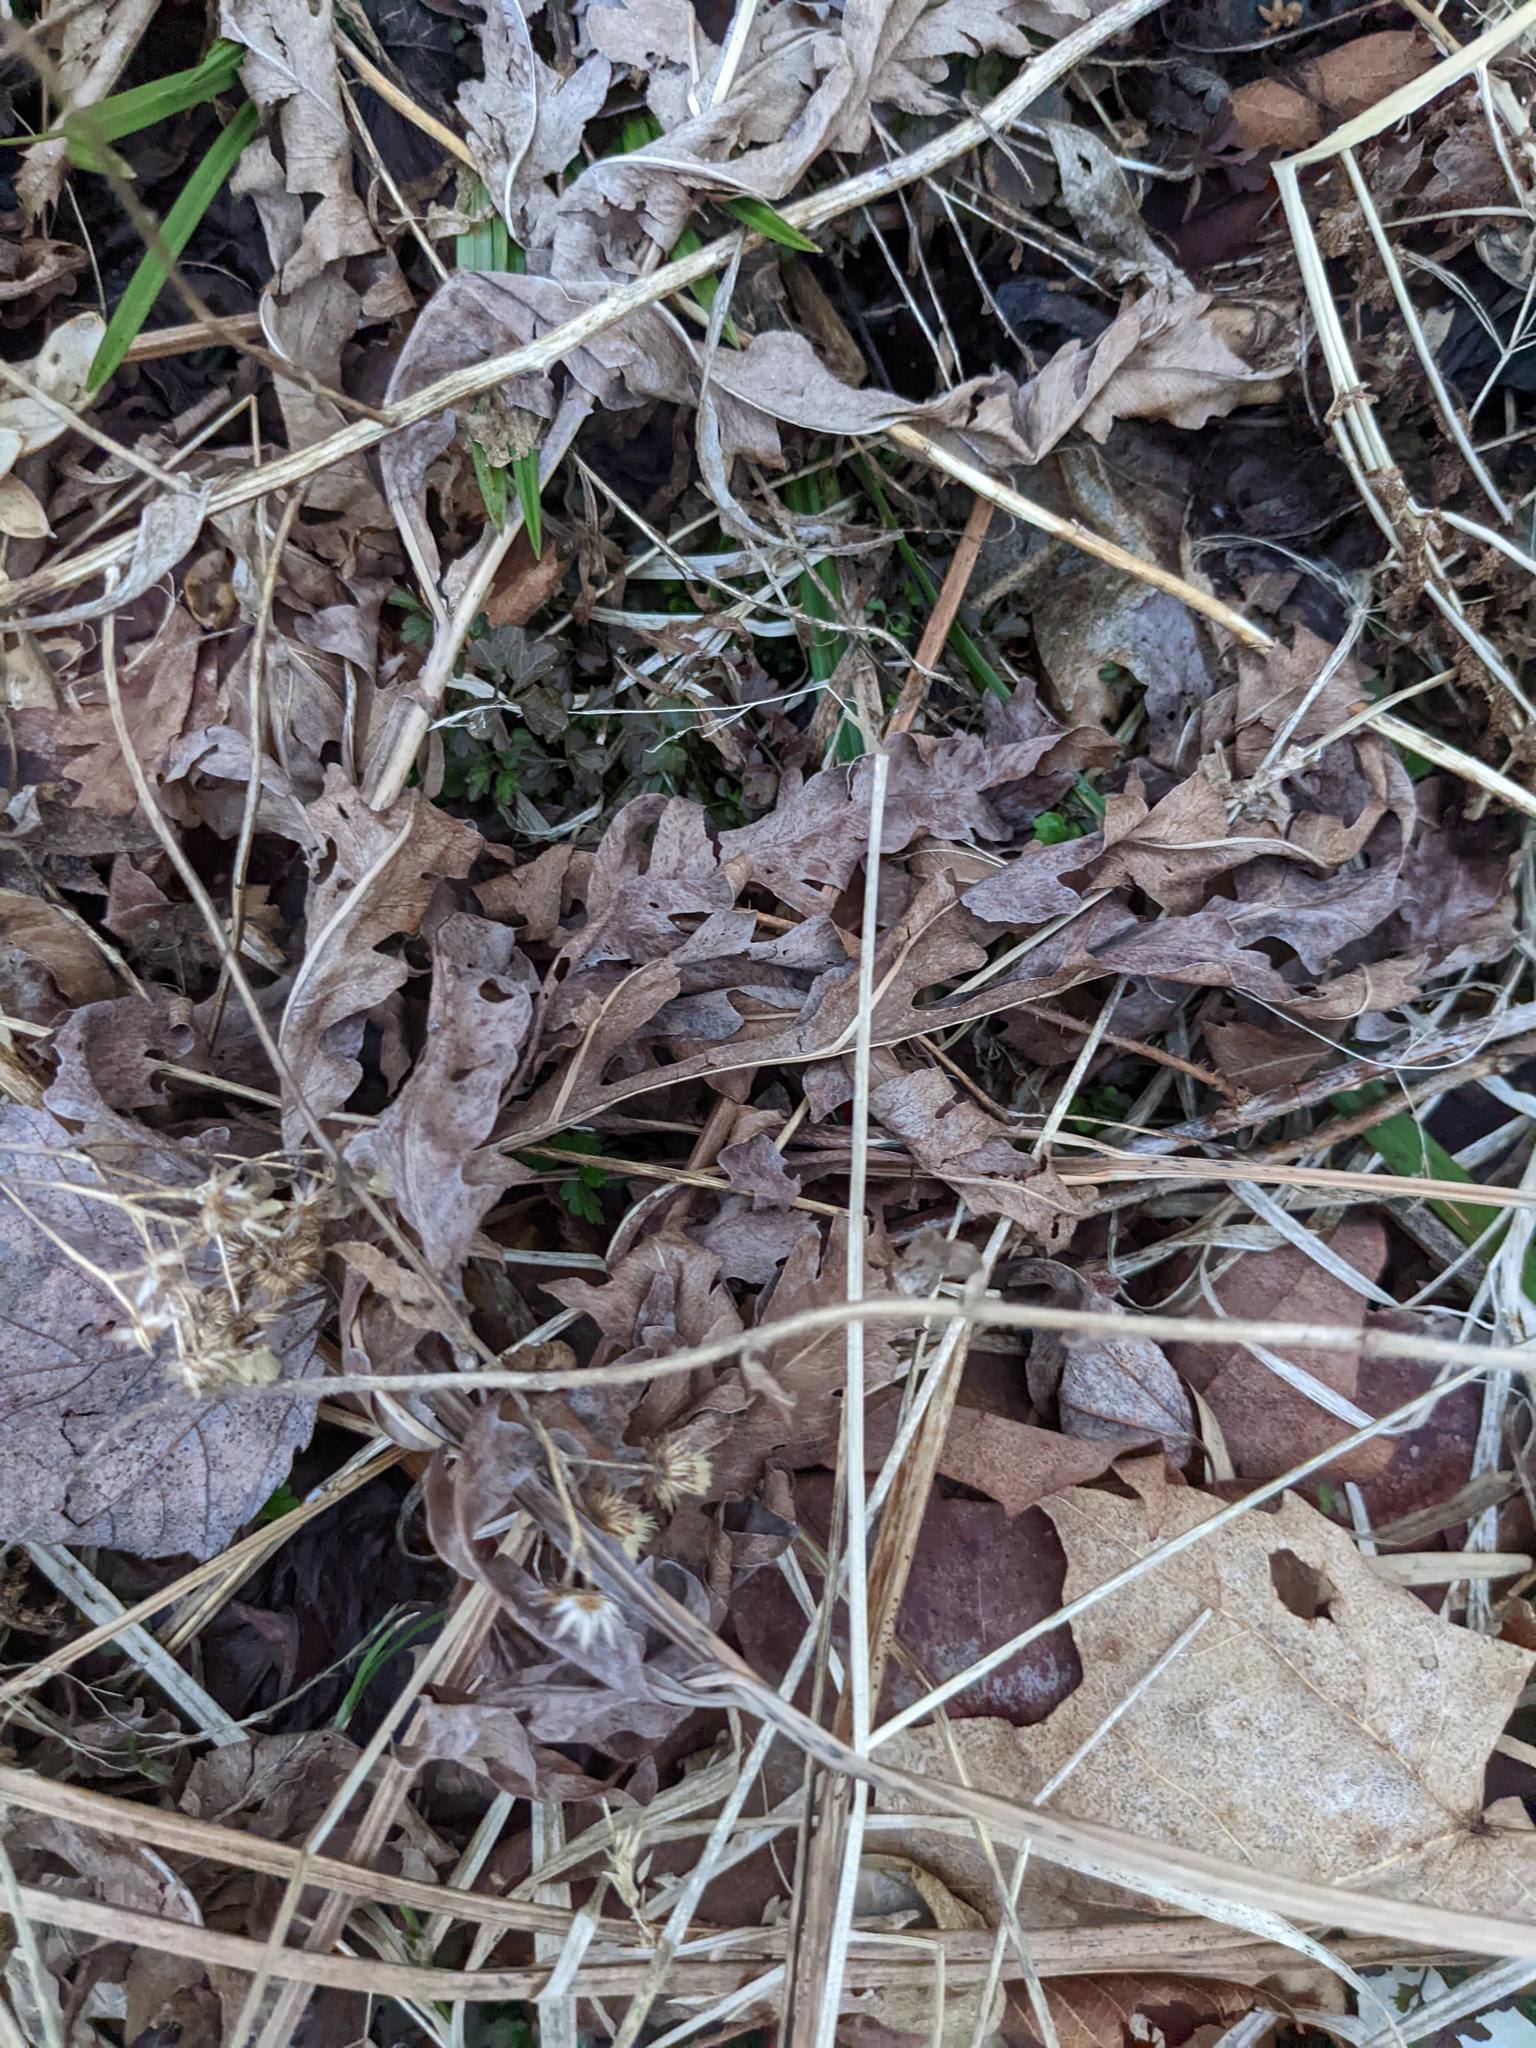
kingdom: Plantae
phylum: Tracheophyta
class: Polypodiopsida
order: Polypodiales
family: Dennstaedtiaceae
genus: Pteridium
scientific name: Pteridium aquilinum
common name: Bracken
